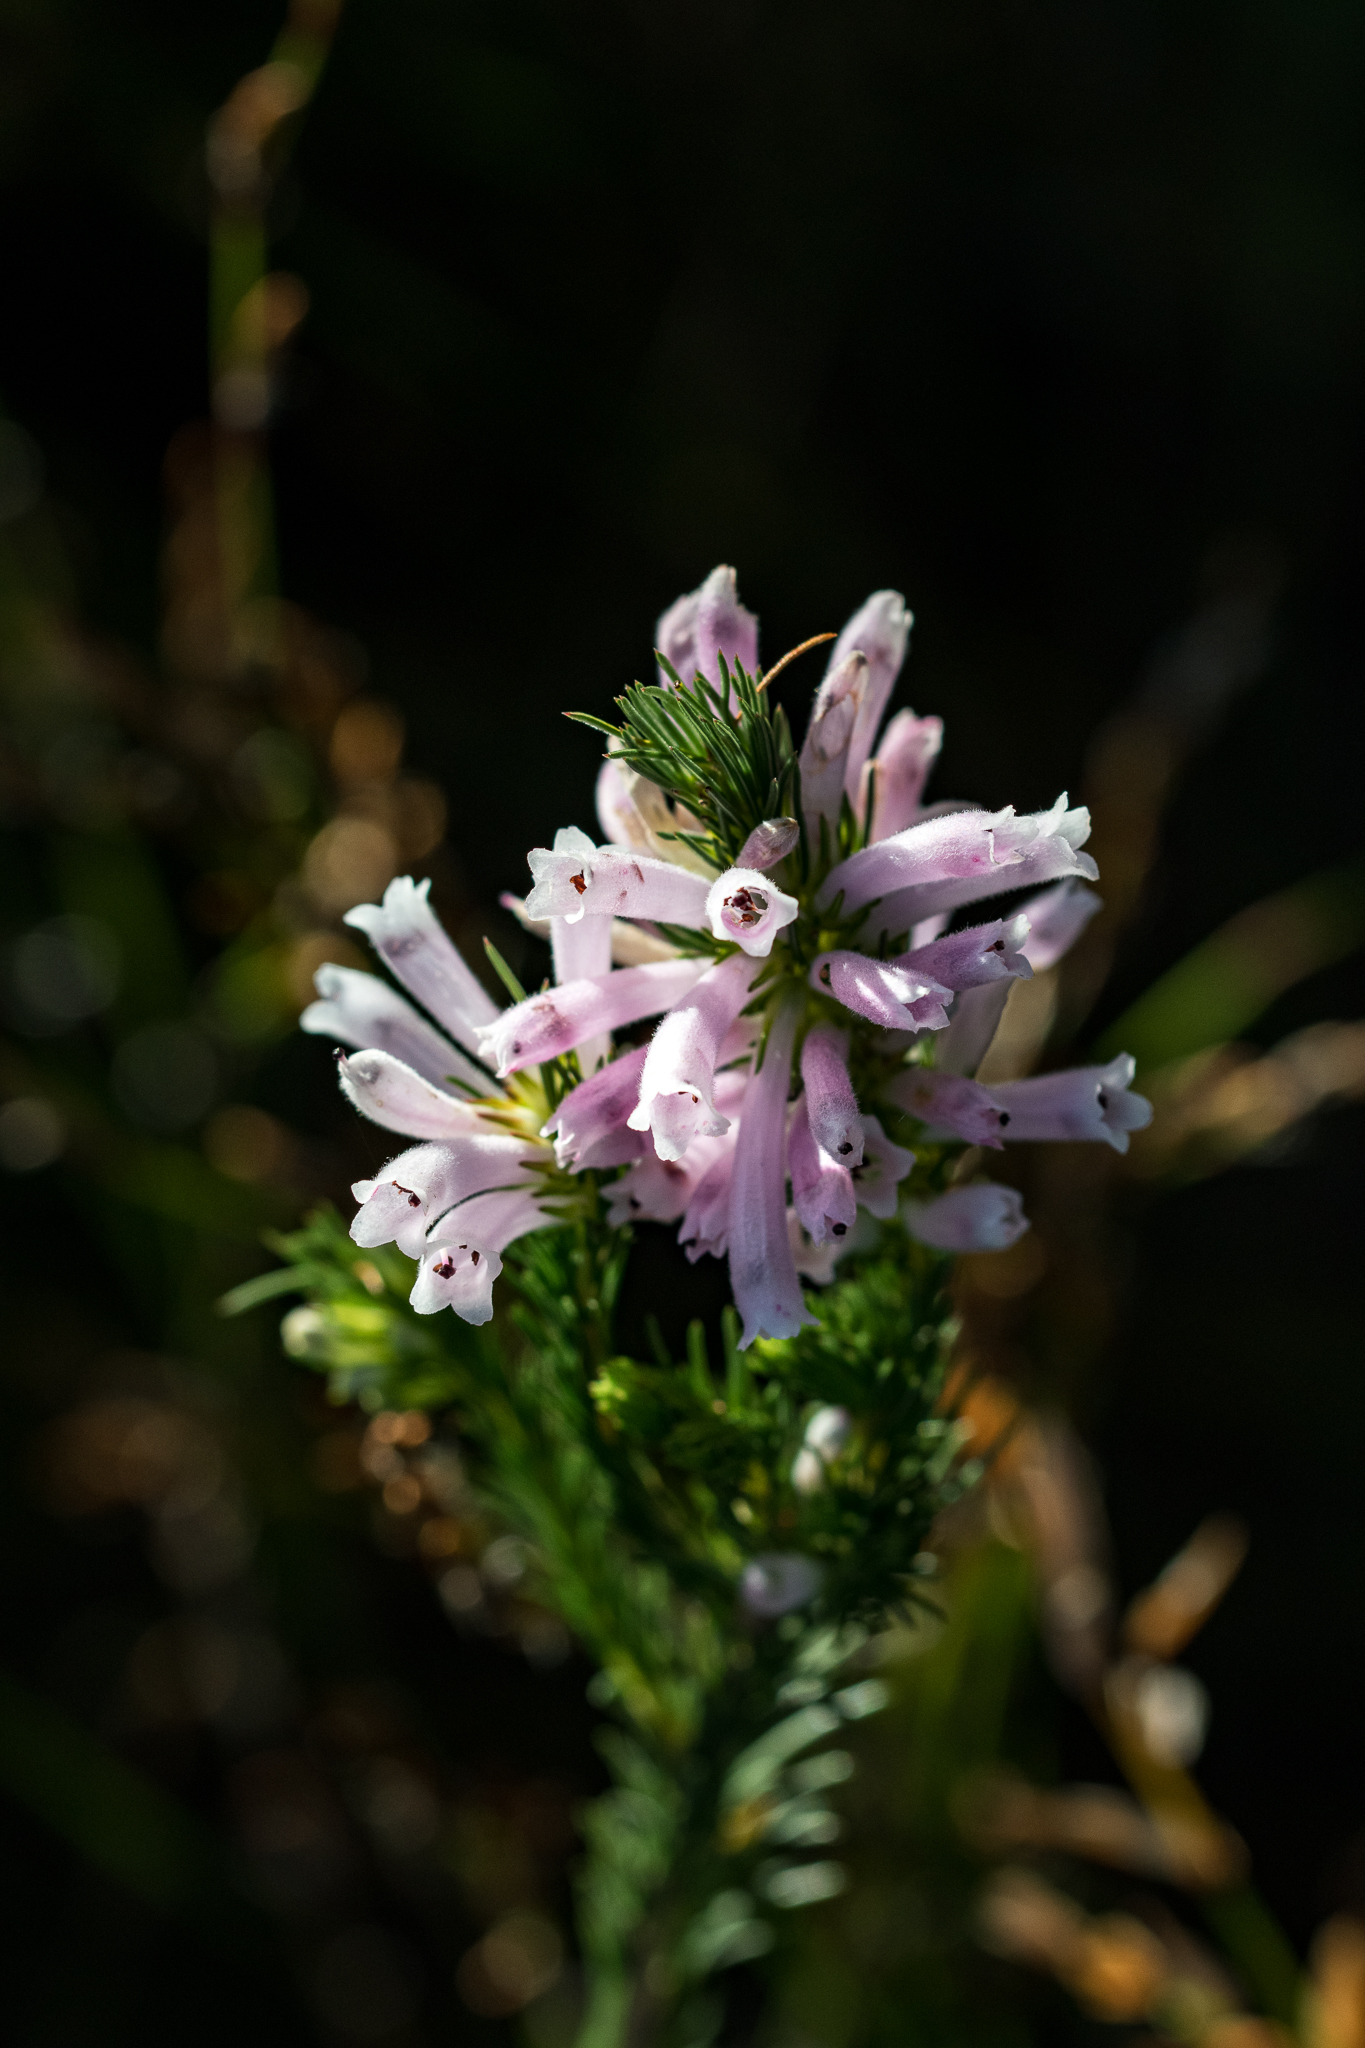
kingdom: Plantae
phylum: Tracheophyta
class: Magnoliopsida
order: Ericales
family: Ericaceae
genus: Erica
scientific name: Erica vestita
